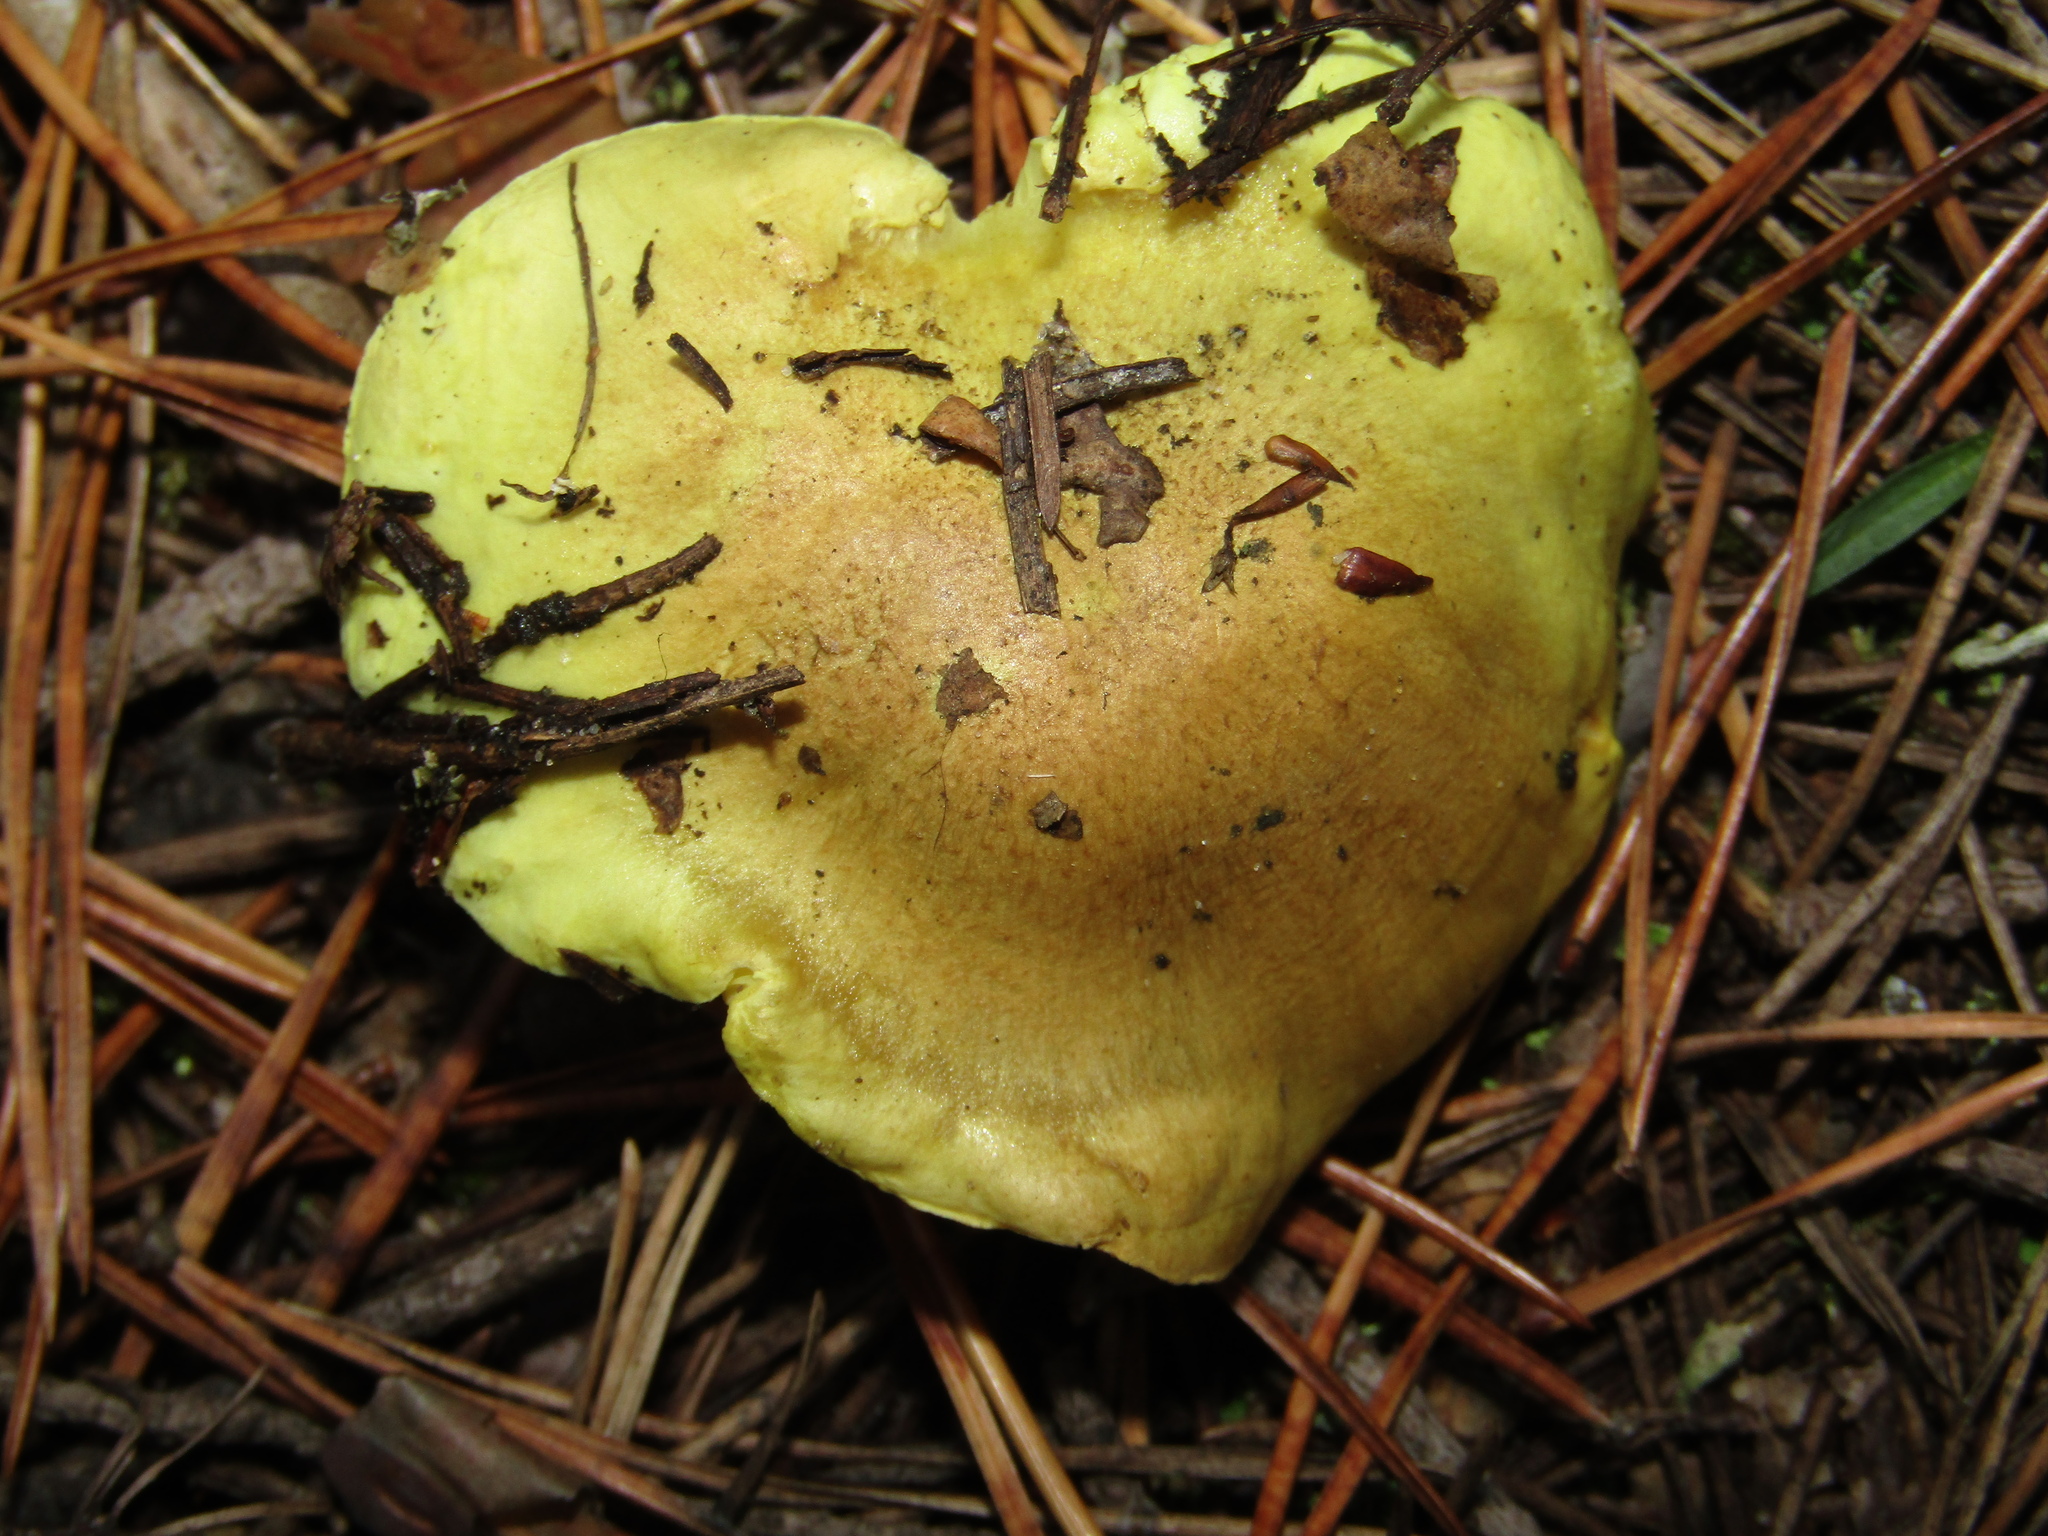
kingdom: Fungi
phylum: Basidiomycota
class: Agaricomycetes
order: Agaricales
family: Tricholomataceae
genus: Tricholoma
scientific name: Tricholoma equestre
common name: Yellow knight
